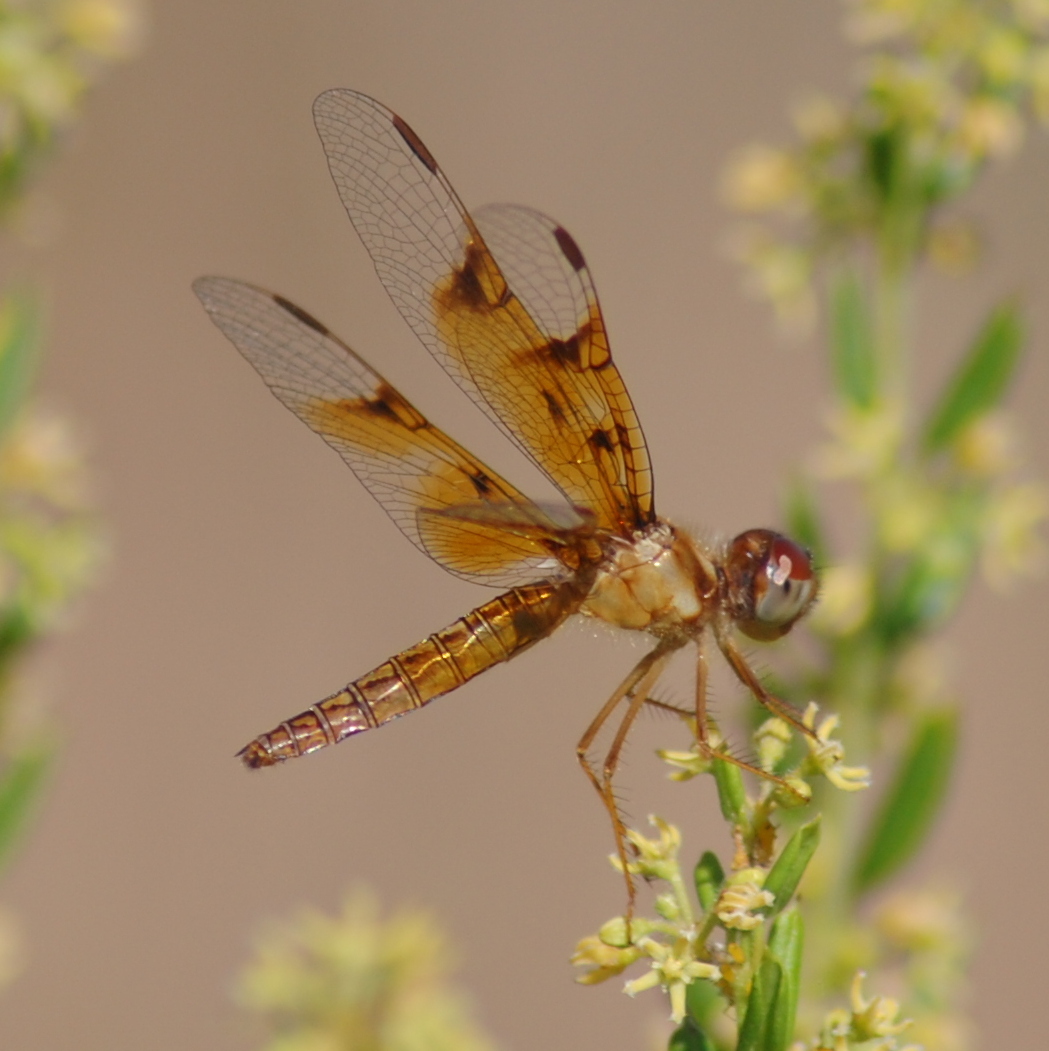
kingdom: Animalia
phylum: Arthropoda
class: Insecta
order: Odonata
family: Libellulidae
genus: Perithemis
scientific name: Perithemis tenera
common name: Eastern amberwing
